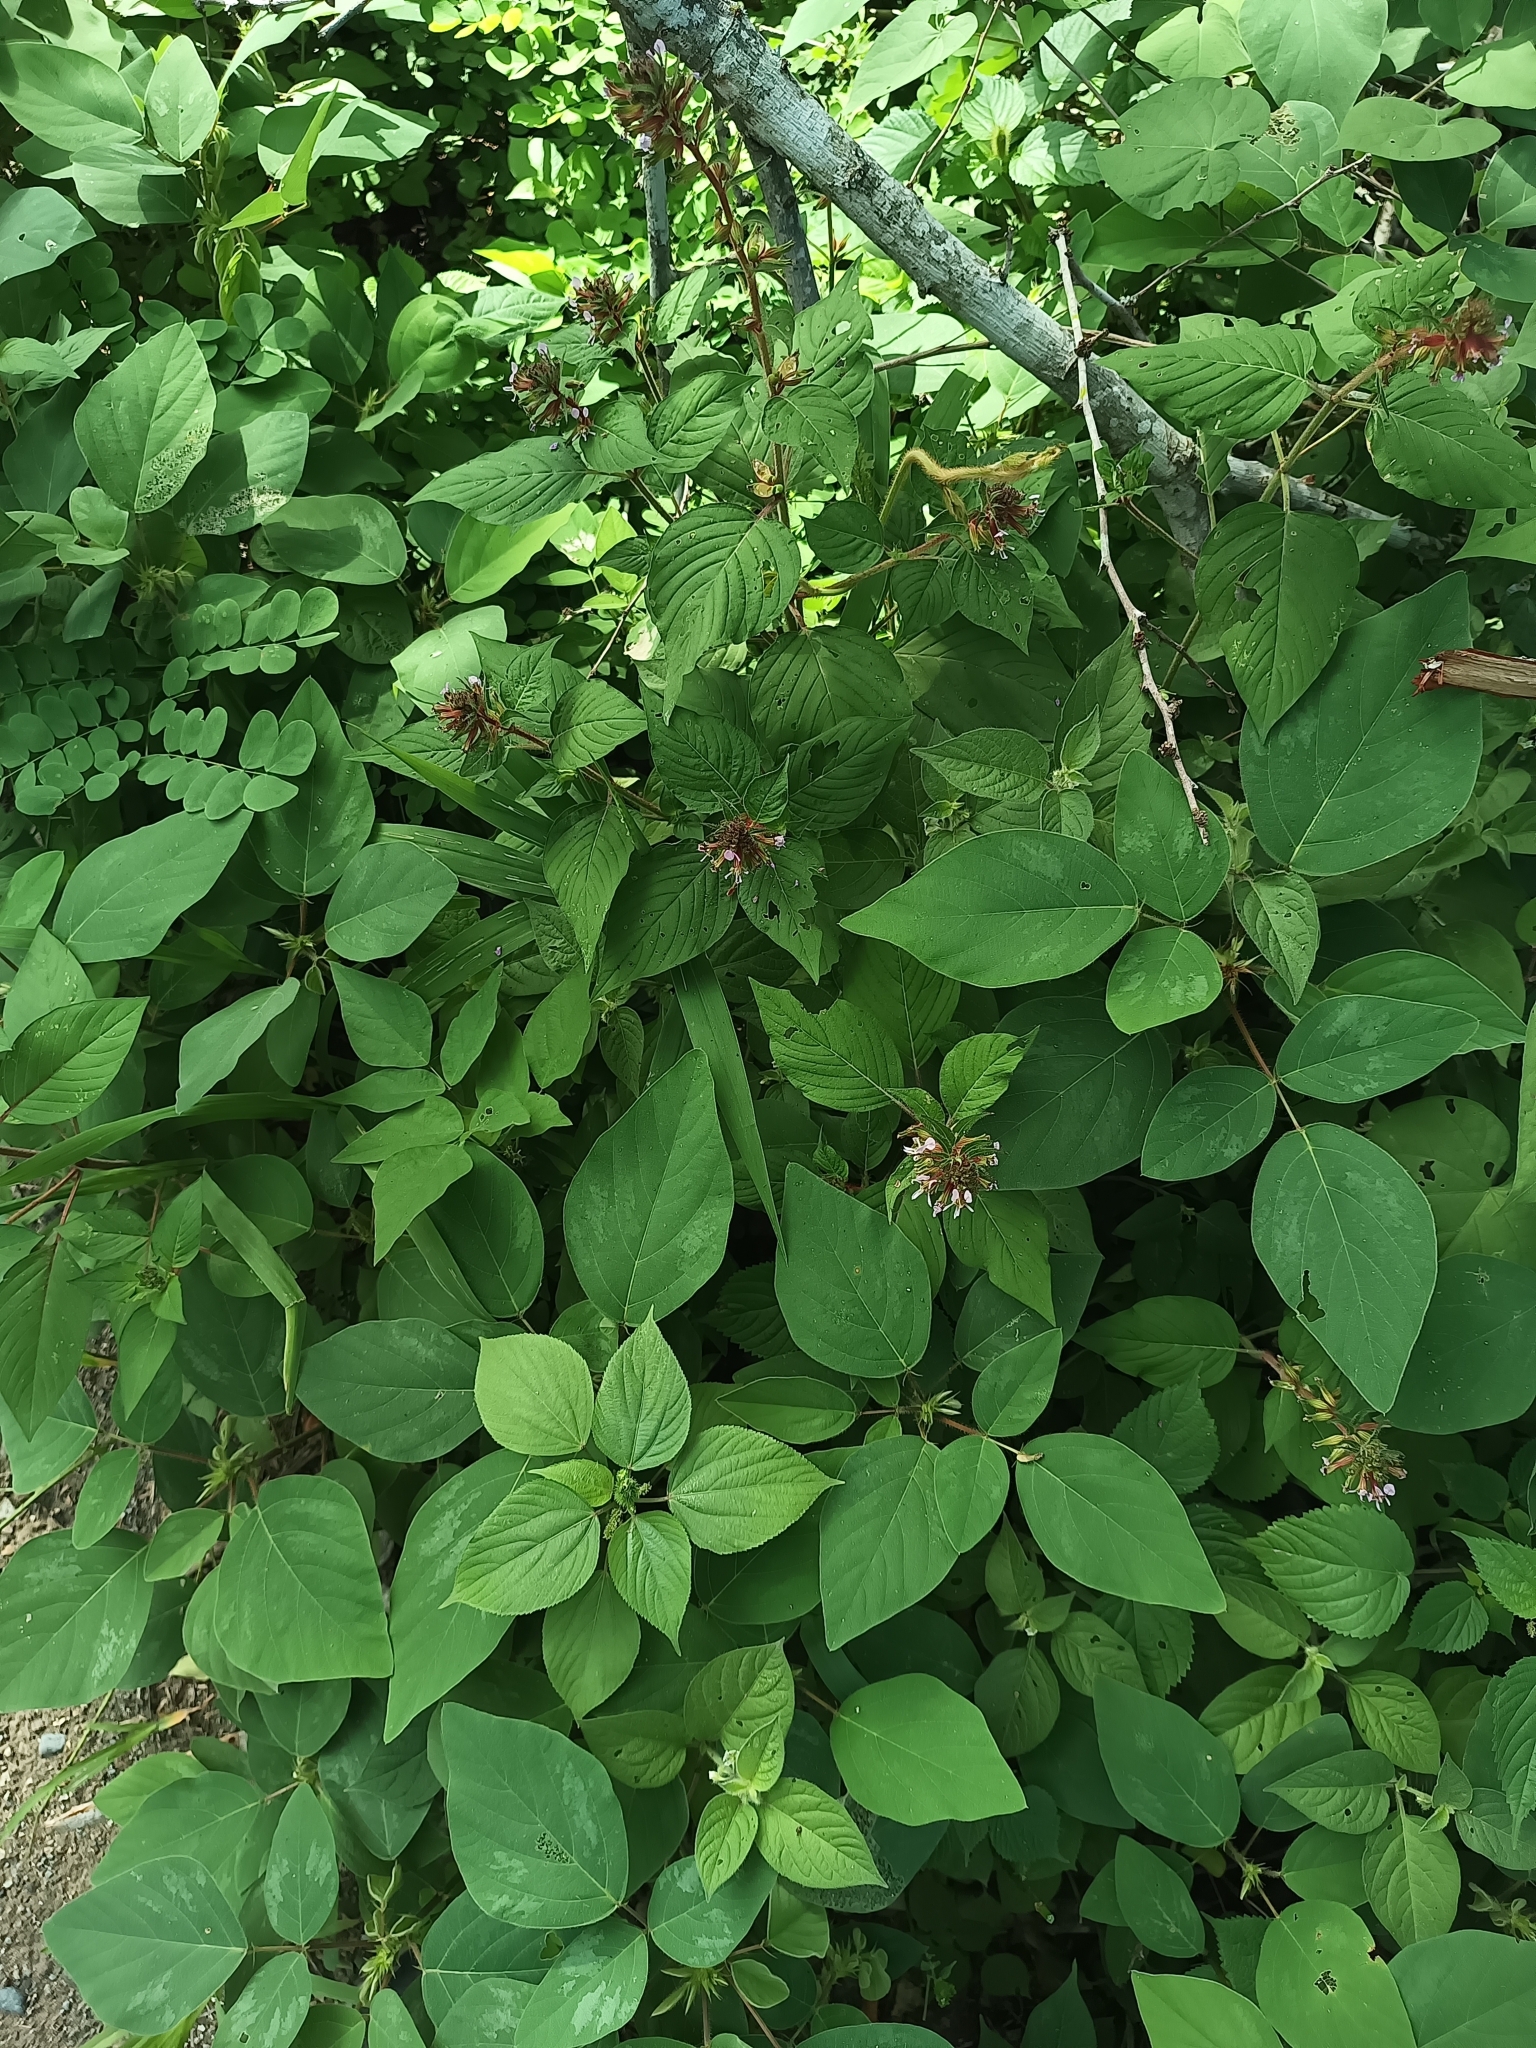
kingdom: Plantae
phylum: Tracheophyta
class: Magnoliopsida
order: Myrtales
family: Lythraceae
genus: Cuphea
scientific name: Cuphea leptopoda
